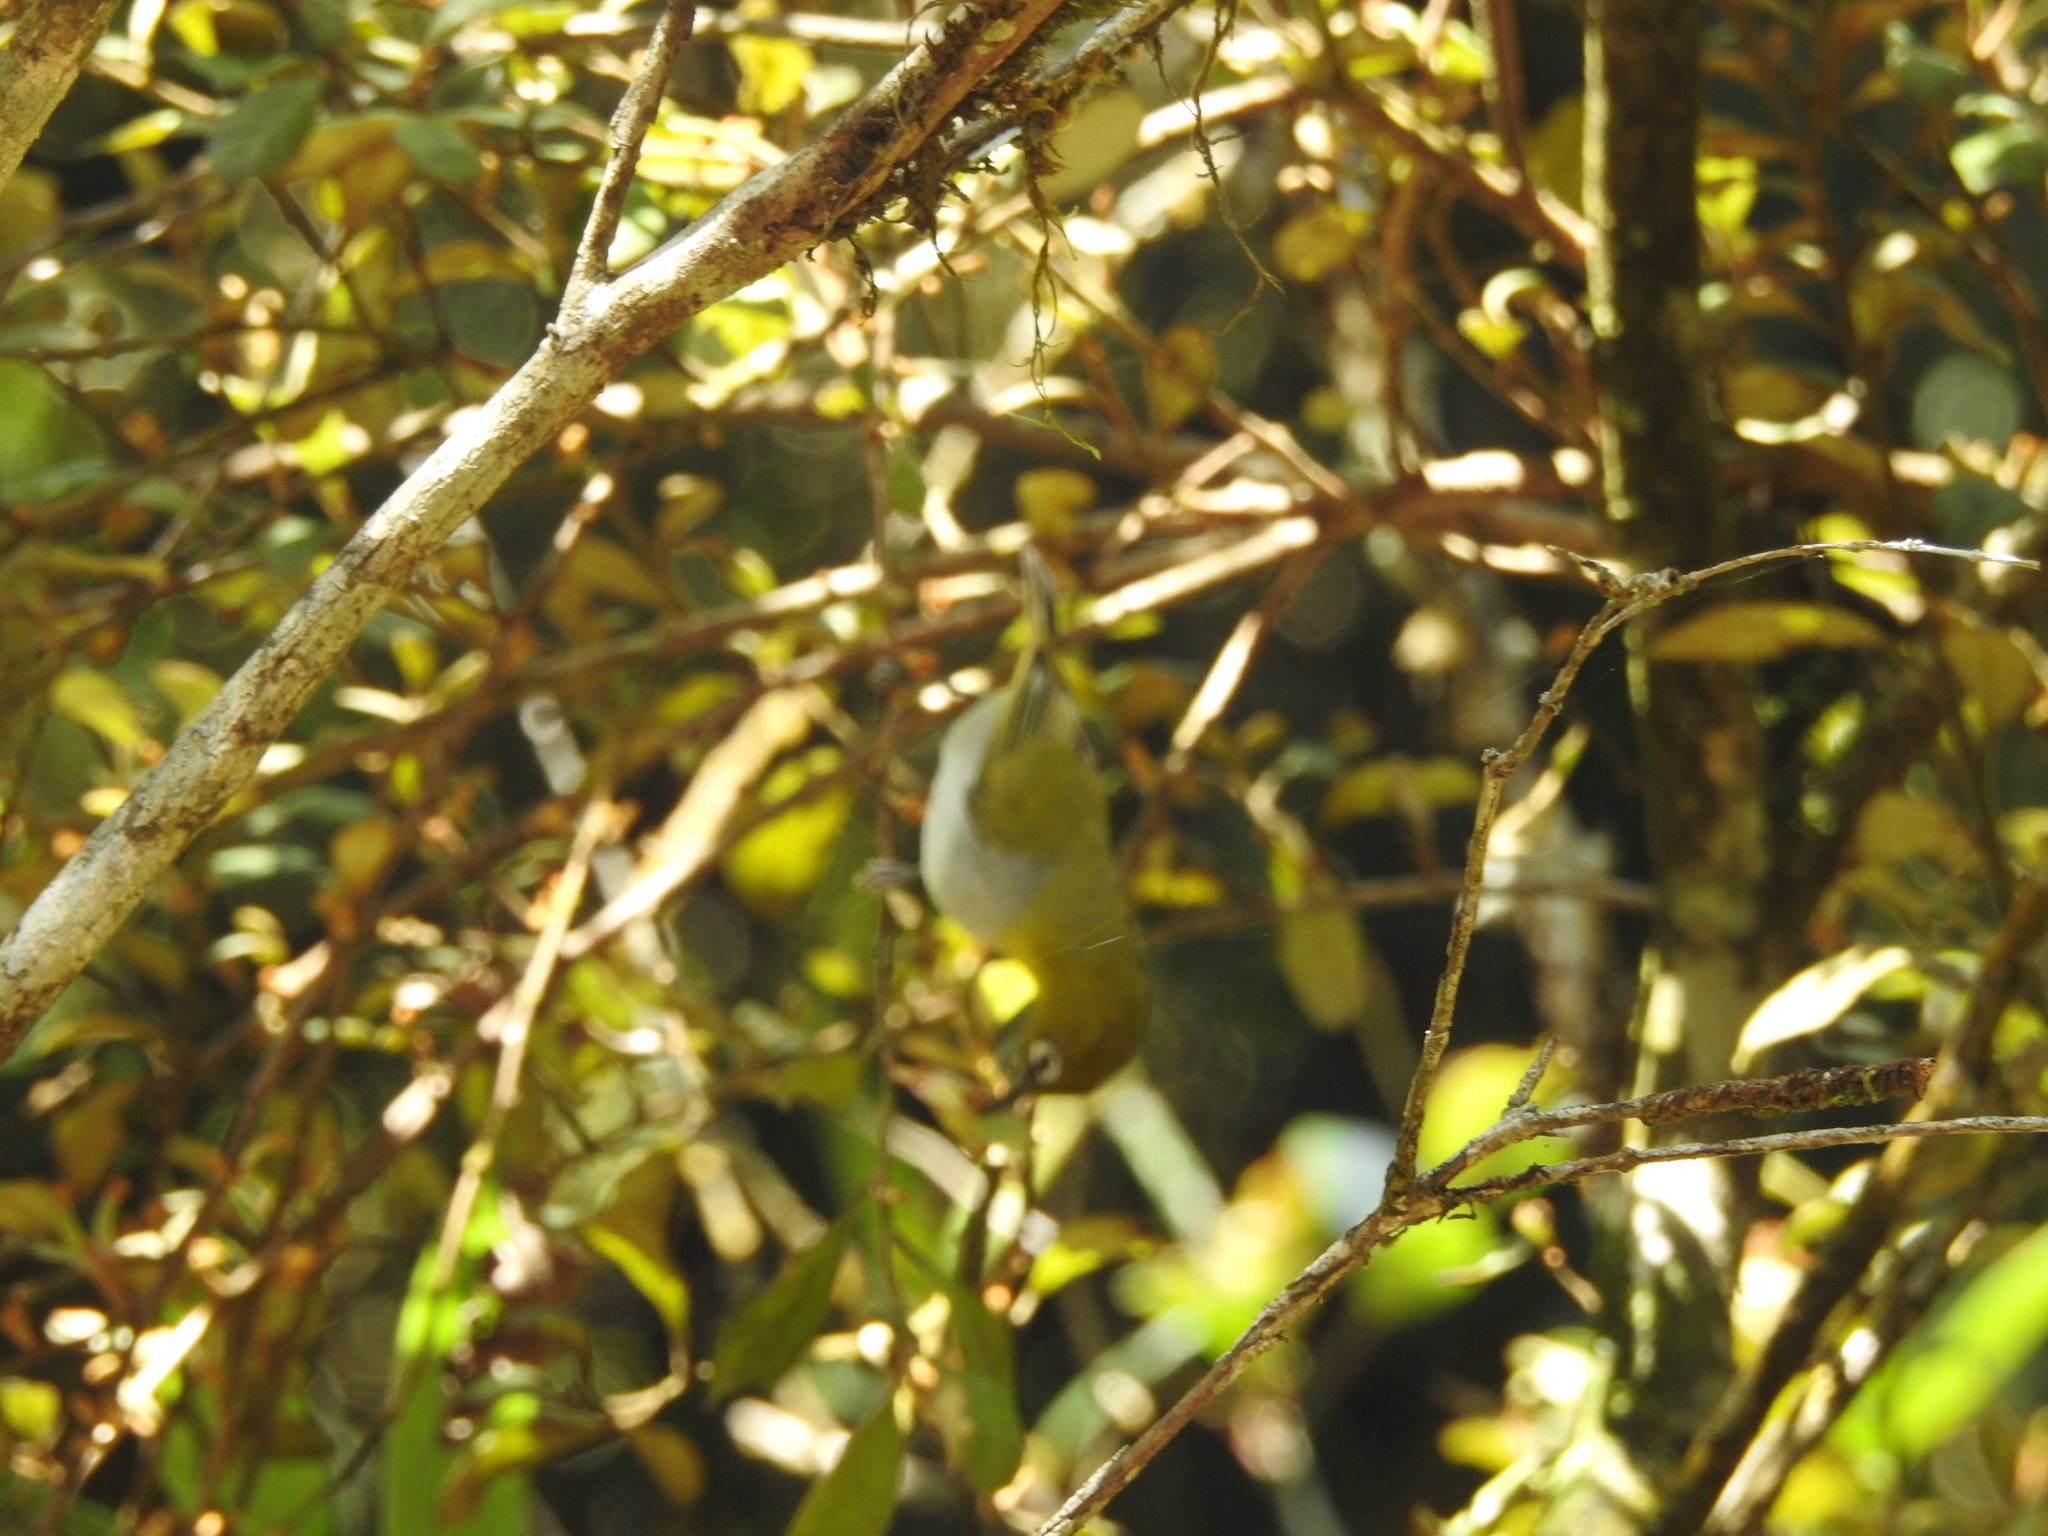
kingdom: Animalia
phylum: Chordata
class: Aves
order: Passeriformes
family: Zosteropidae
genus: Zosterops
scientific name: Zosterops palpebrosus
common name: Oriental white-eye
